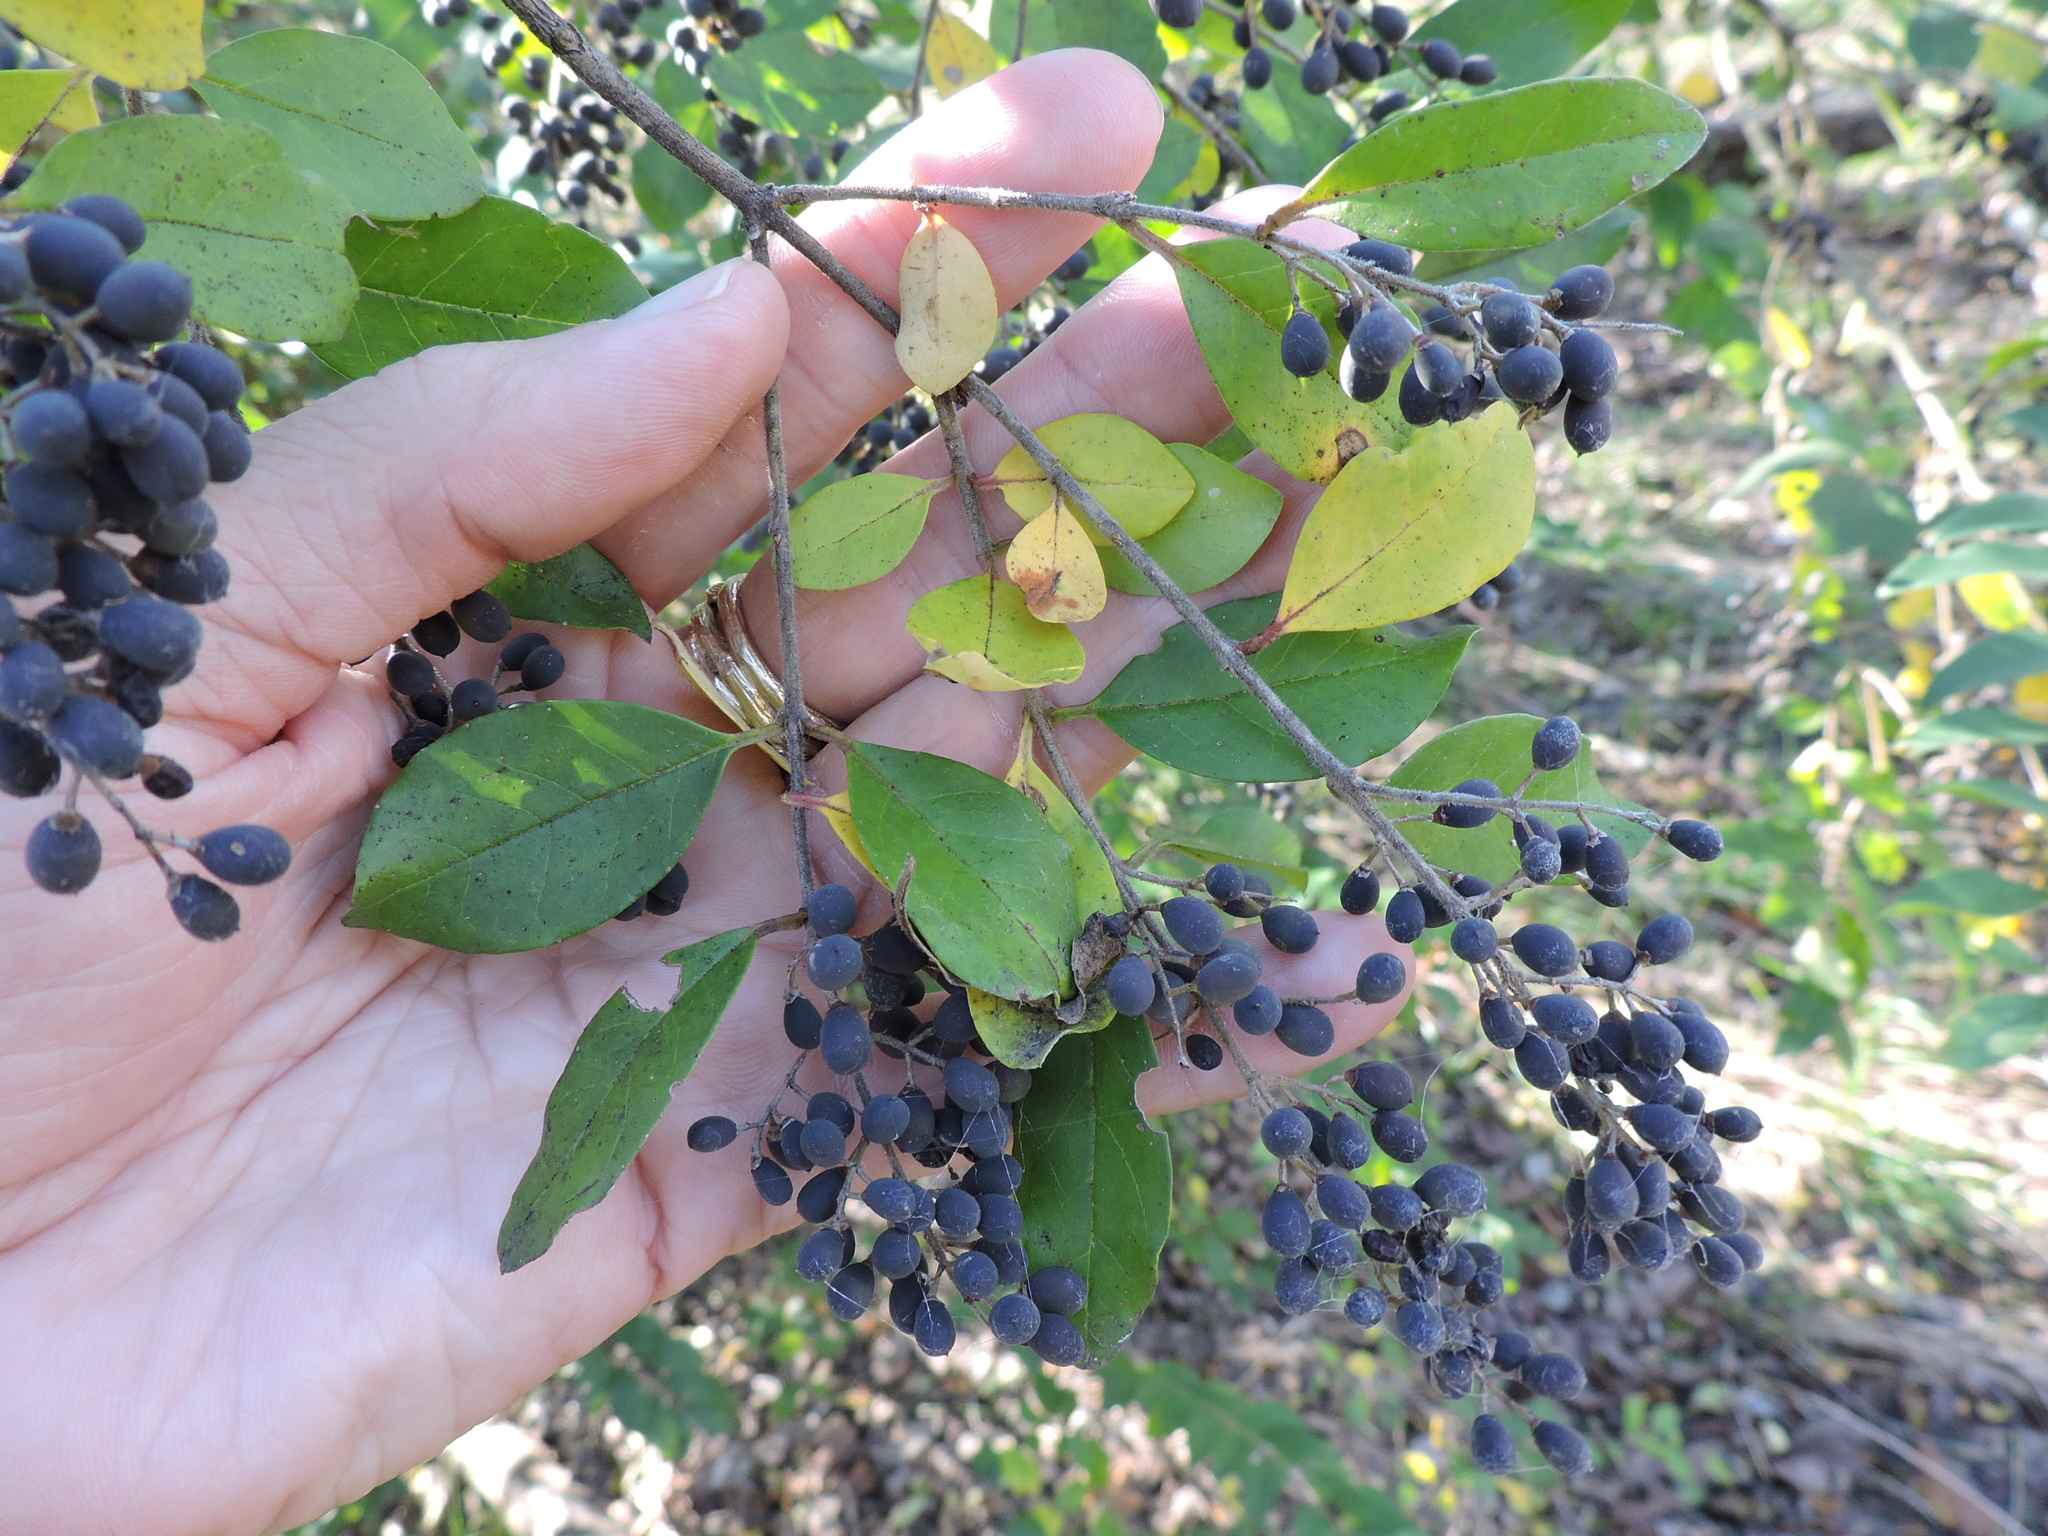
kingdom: Plantae
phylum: Tracheophyta
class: Magnoliopsida
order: Lamiales
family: Oleaceae
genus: Ligustrum
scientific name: Ligustrum sinense
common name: Chinese privet
